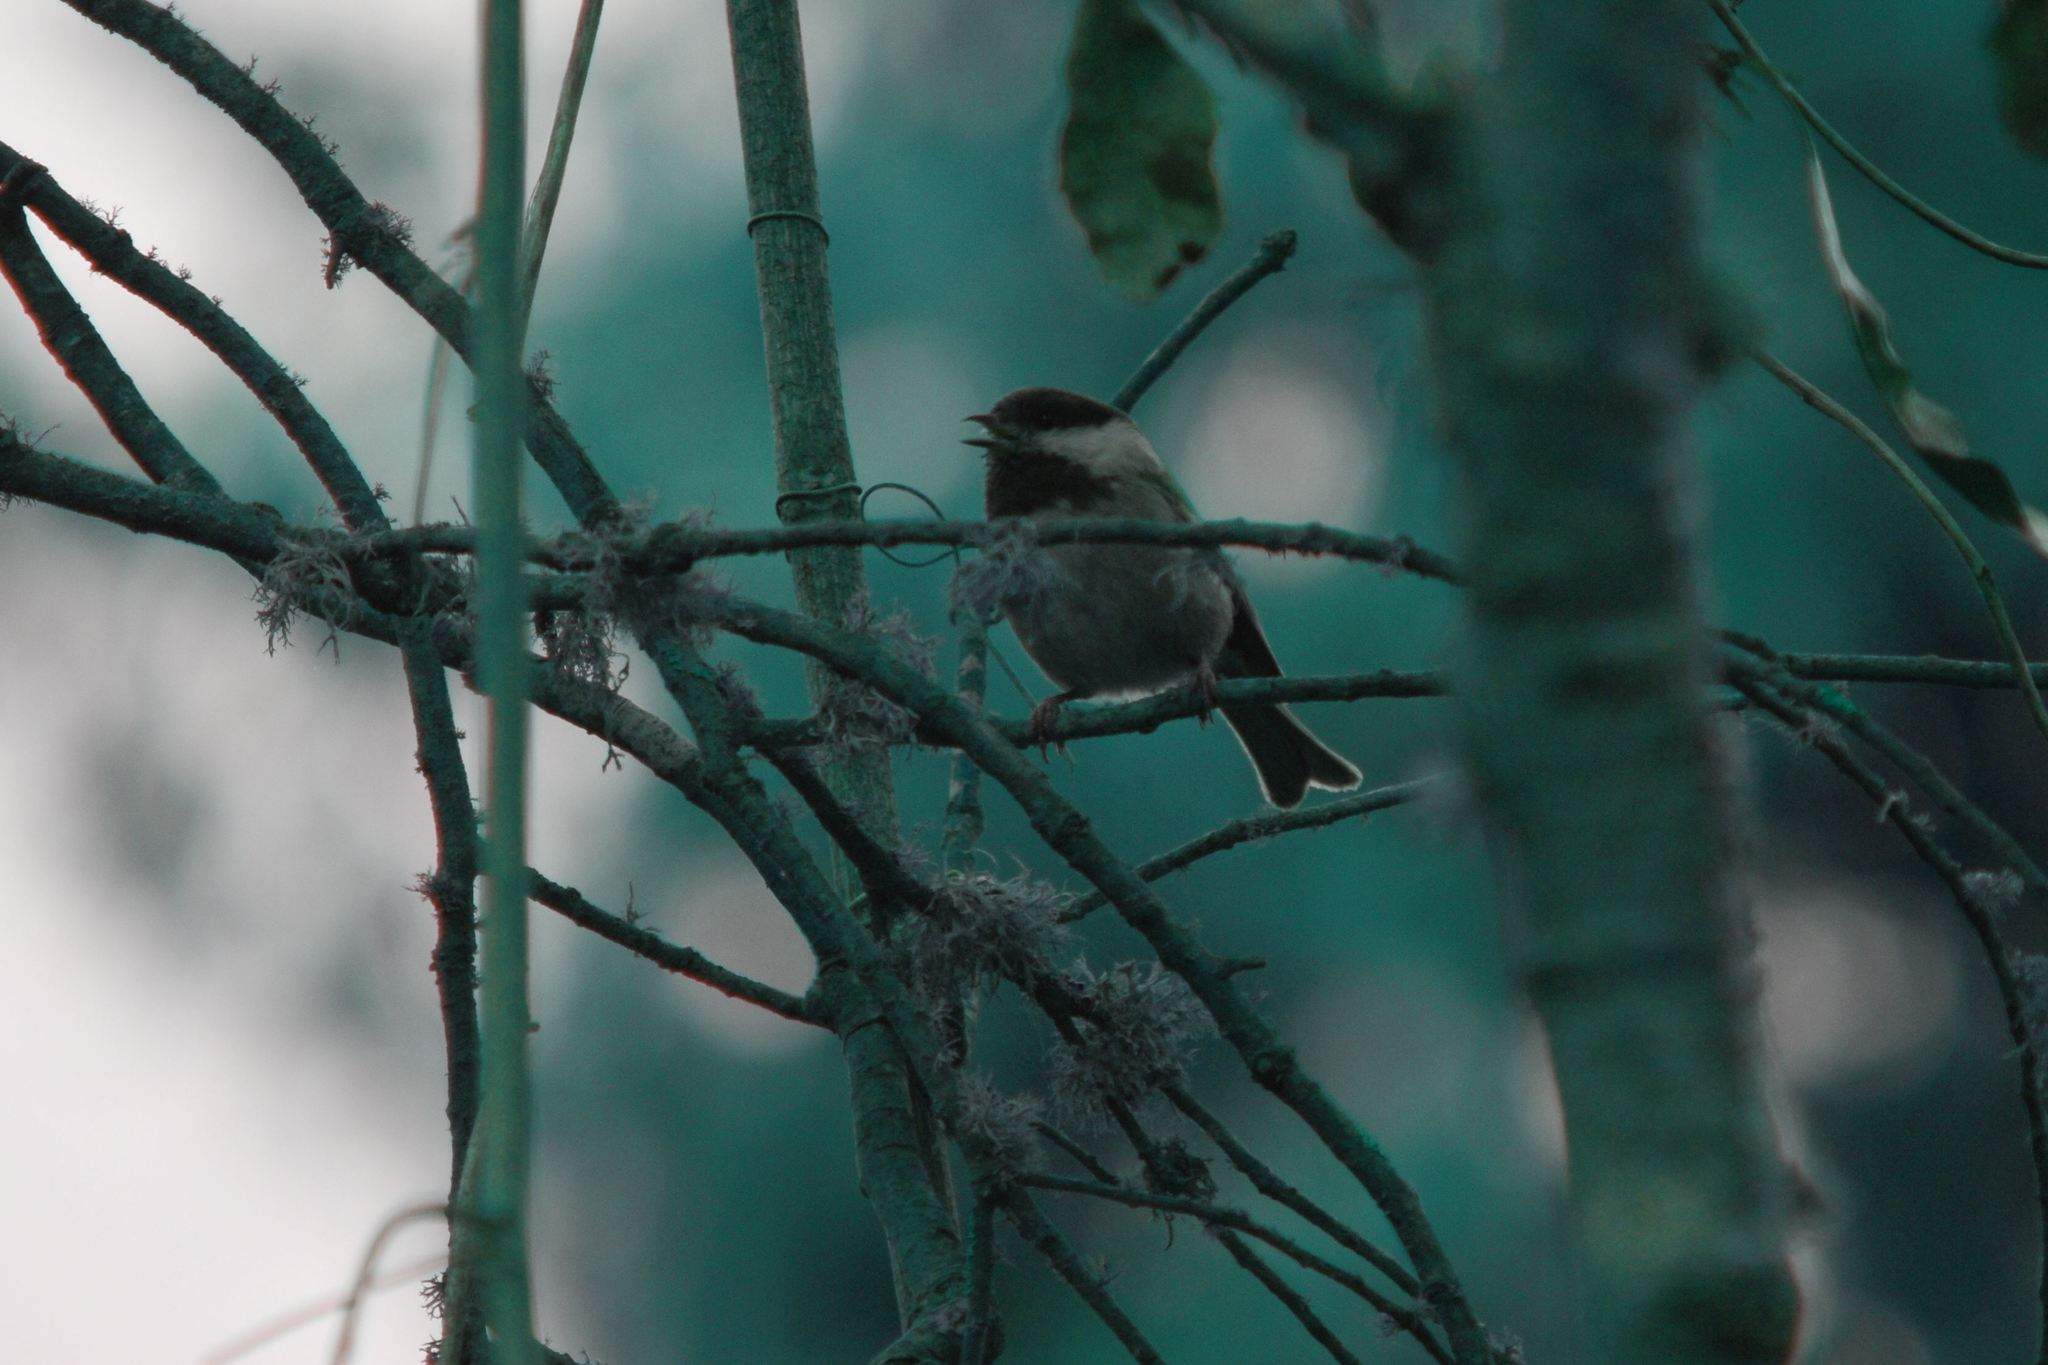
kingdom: Animalia
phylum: Chordata
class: Aves
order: Passeriformes
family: Paridae
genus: Poecile
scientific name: Poecile rufescens
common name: Chestnut-backed chickadee
